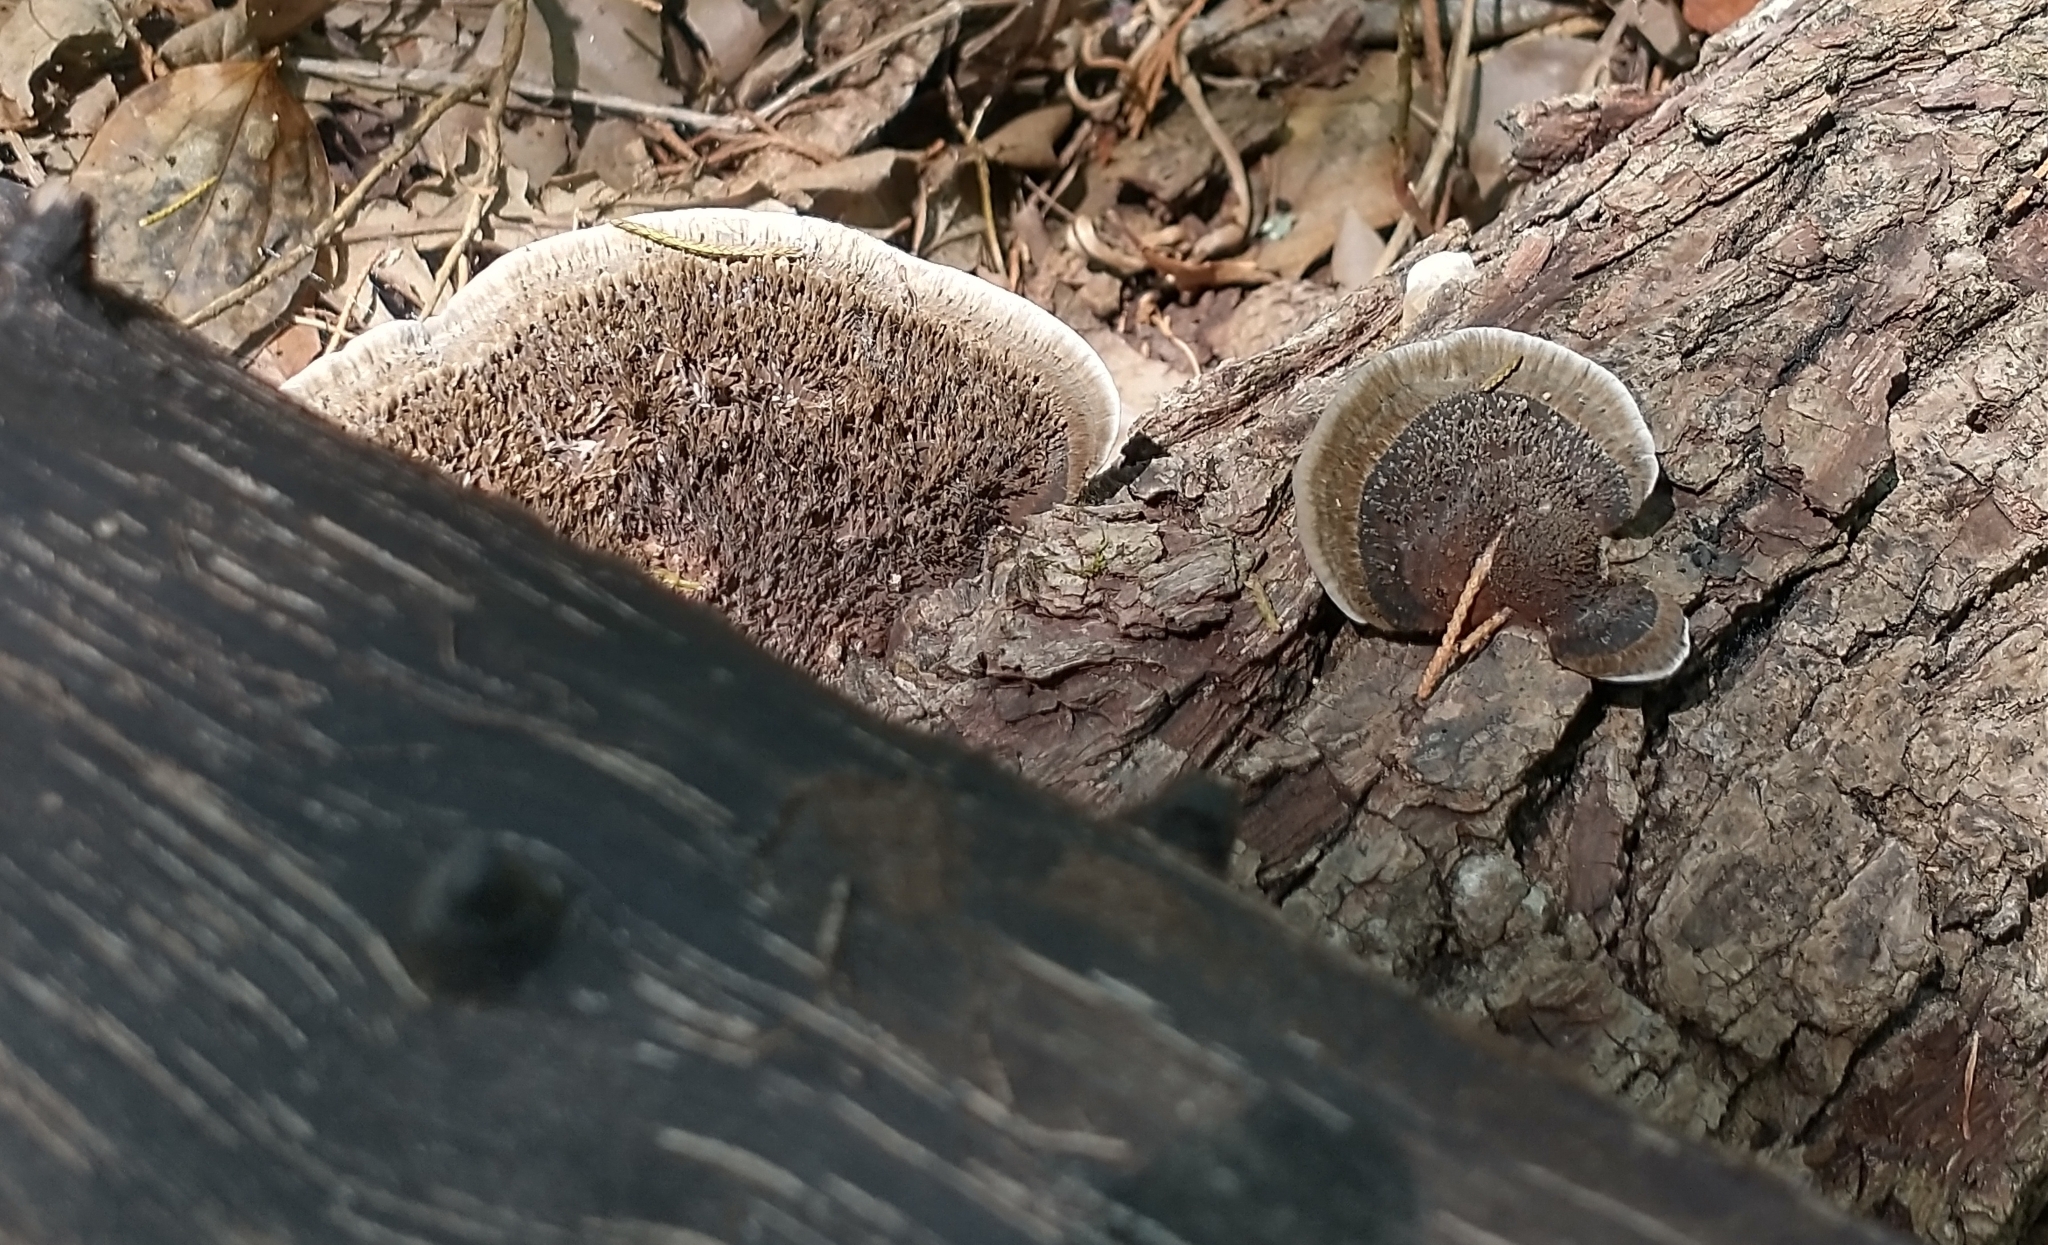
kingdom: Fungi
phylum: Basidiomycota
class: Agaricomycetes
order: Polyporales
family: Cerrenaceae
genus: Cerrena
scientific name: Cerrena hydnoides
